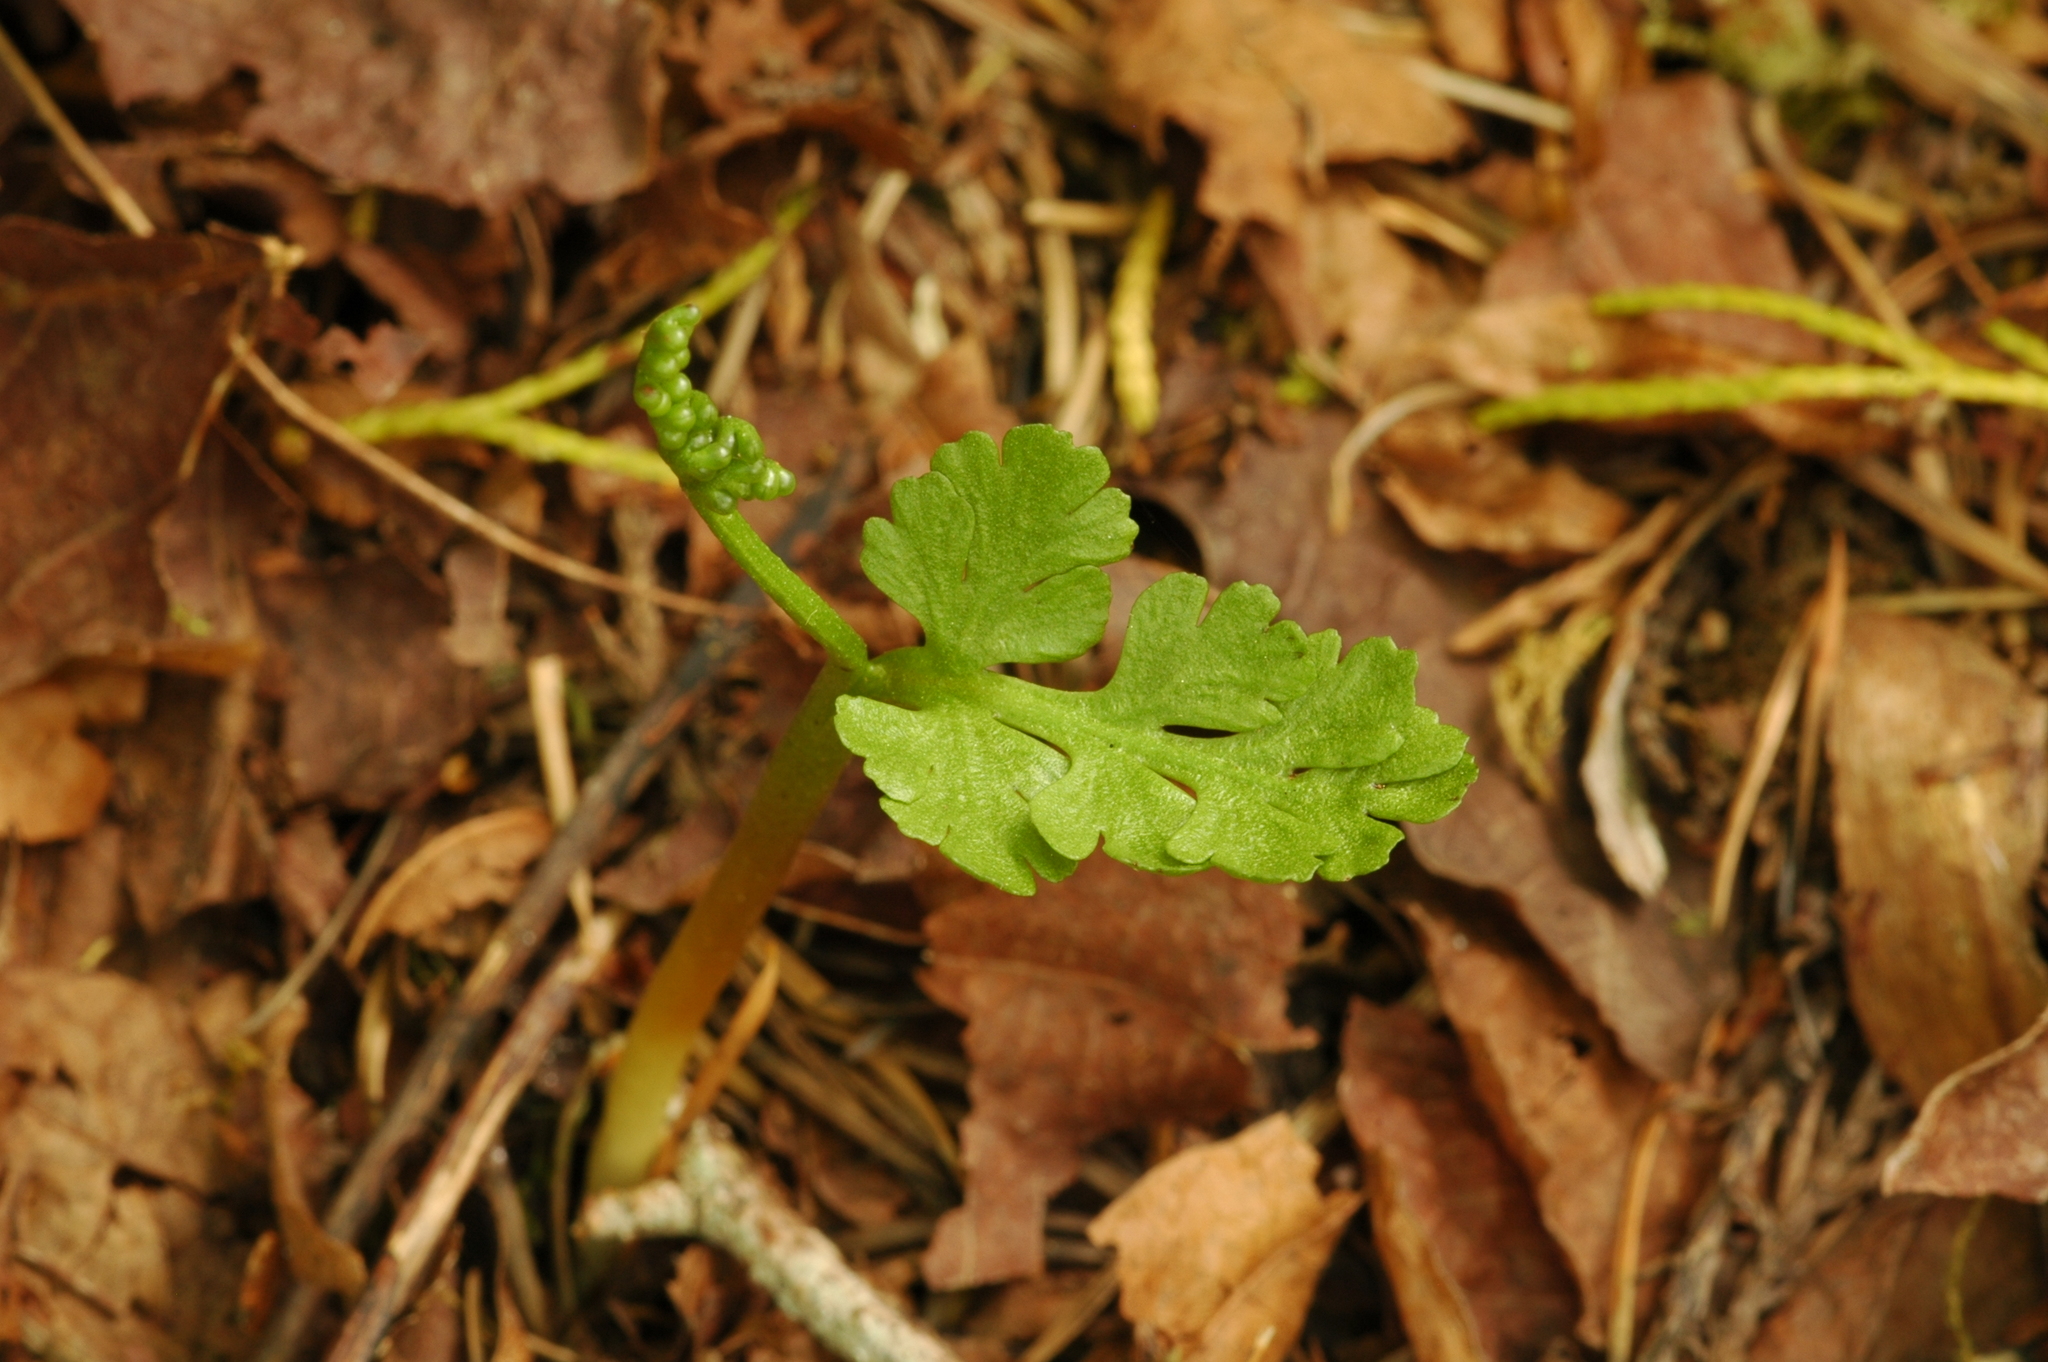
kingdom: Plantae
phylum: Tracheophyta
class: Polypodiopsida
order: Ophioglossales
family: Ophioglossaceae
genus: Botrychium
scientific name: Botrychium pinnatum
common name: Northwestern moonwort
